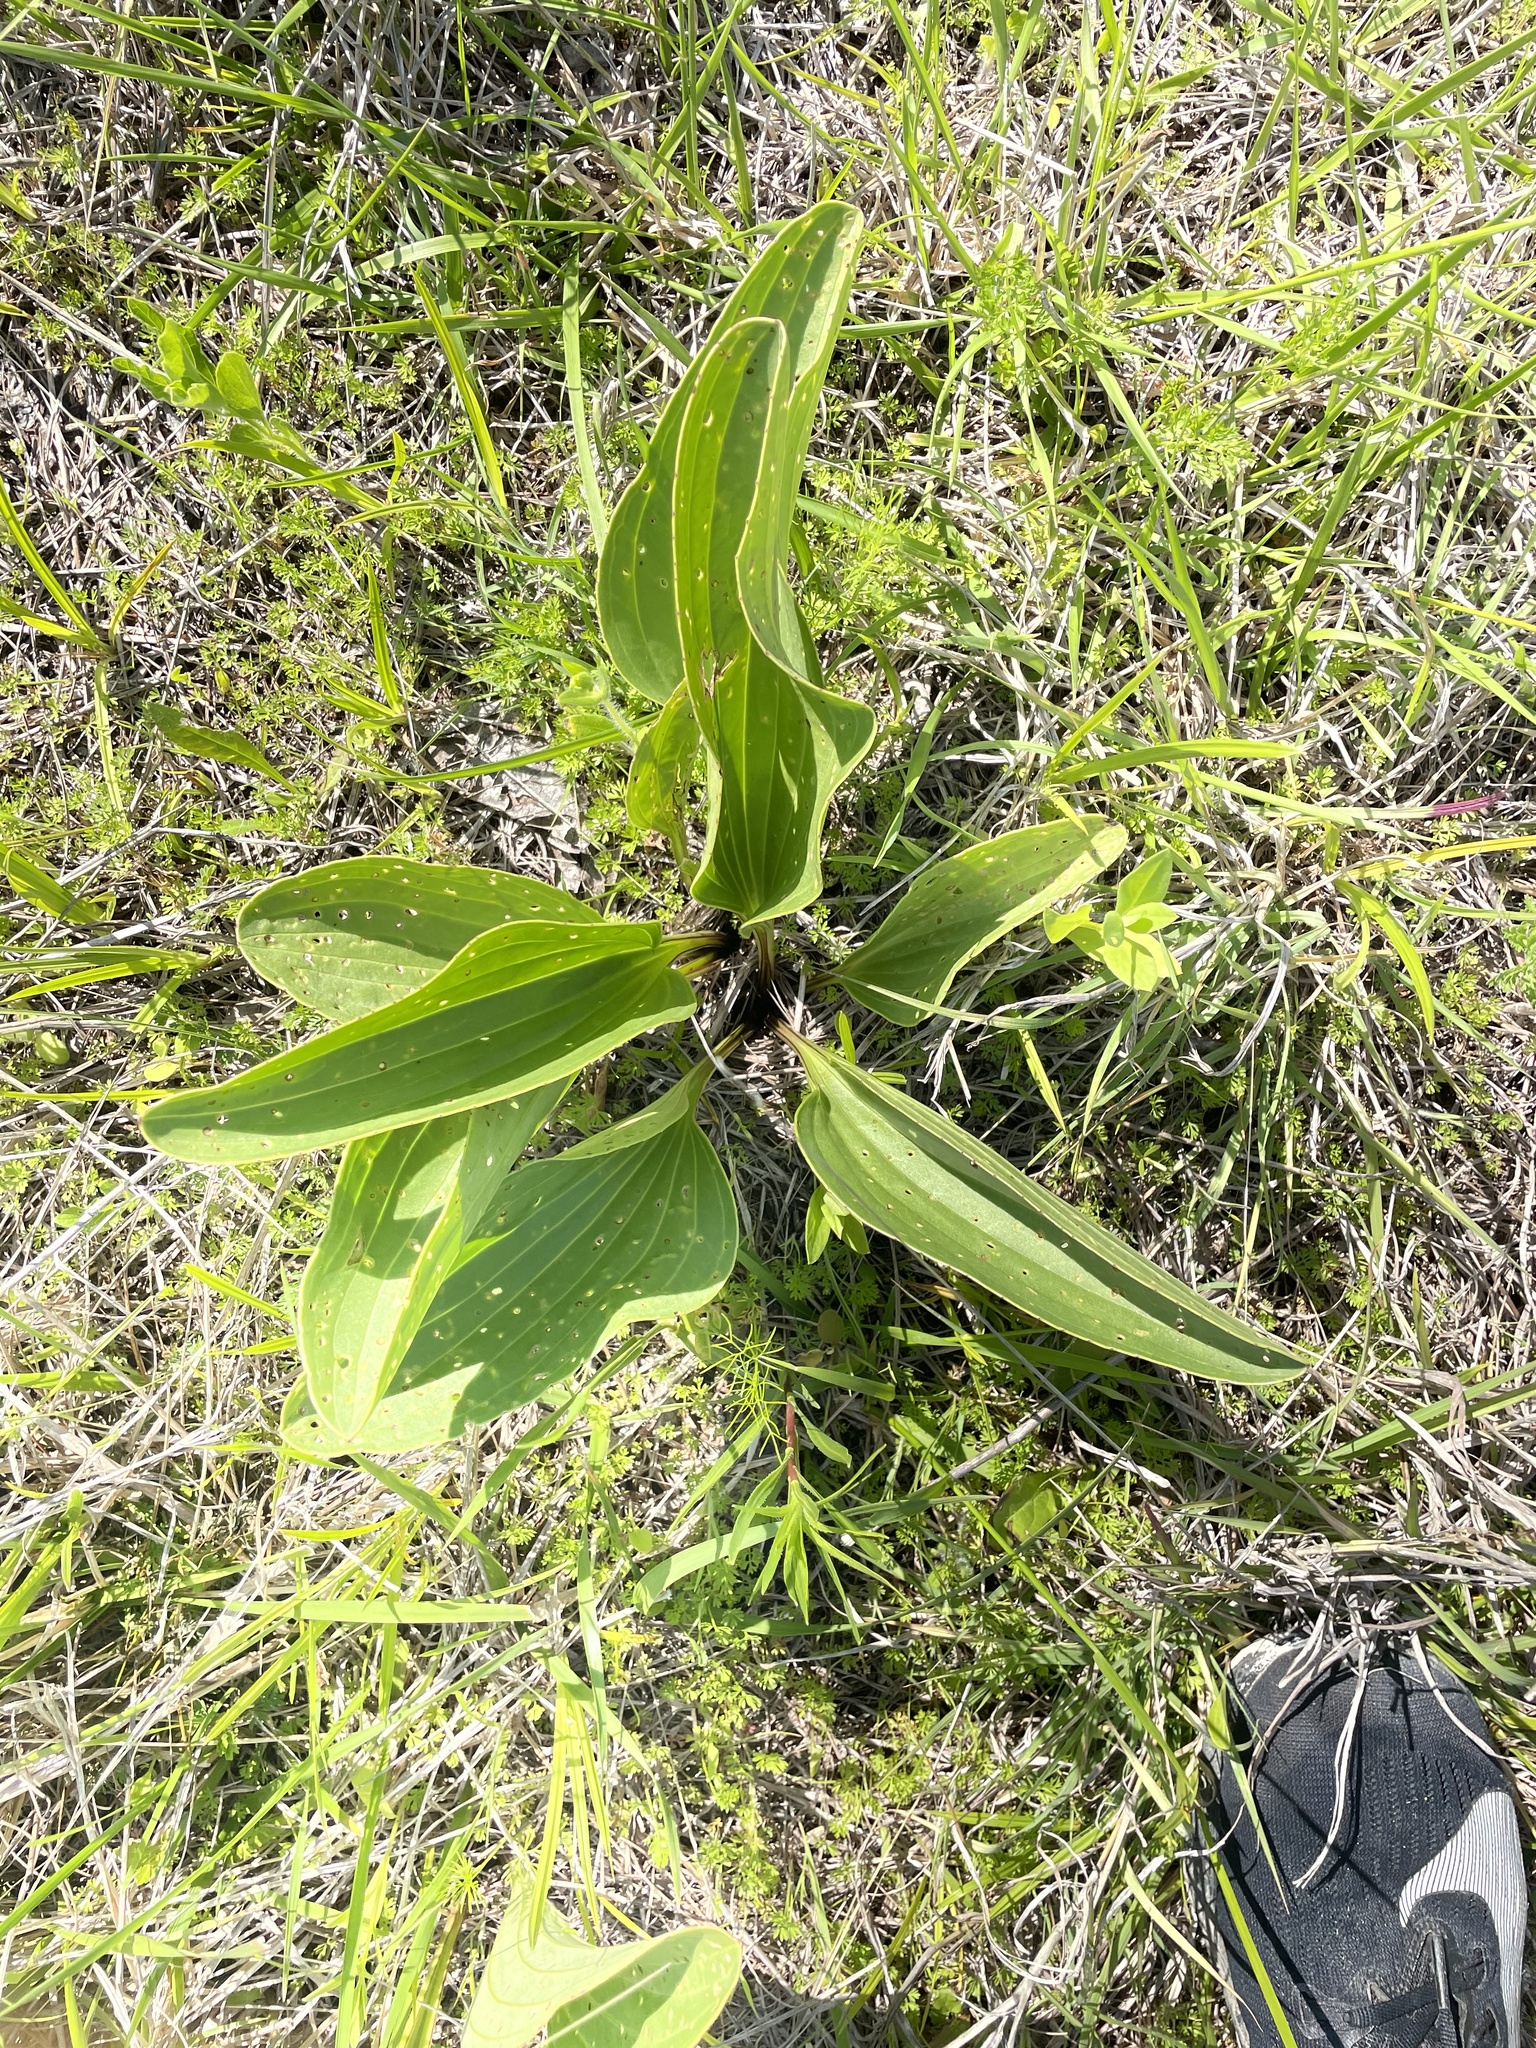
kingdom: Plantae
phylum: Tracheophyta
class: Magnoliopsida
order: Asterales
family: Asteraceae
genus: Arnoglossum
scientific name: Arnoglossum plantagineum
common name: Groove-stemmed indian-plantain
